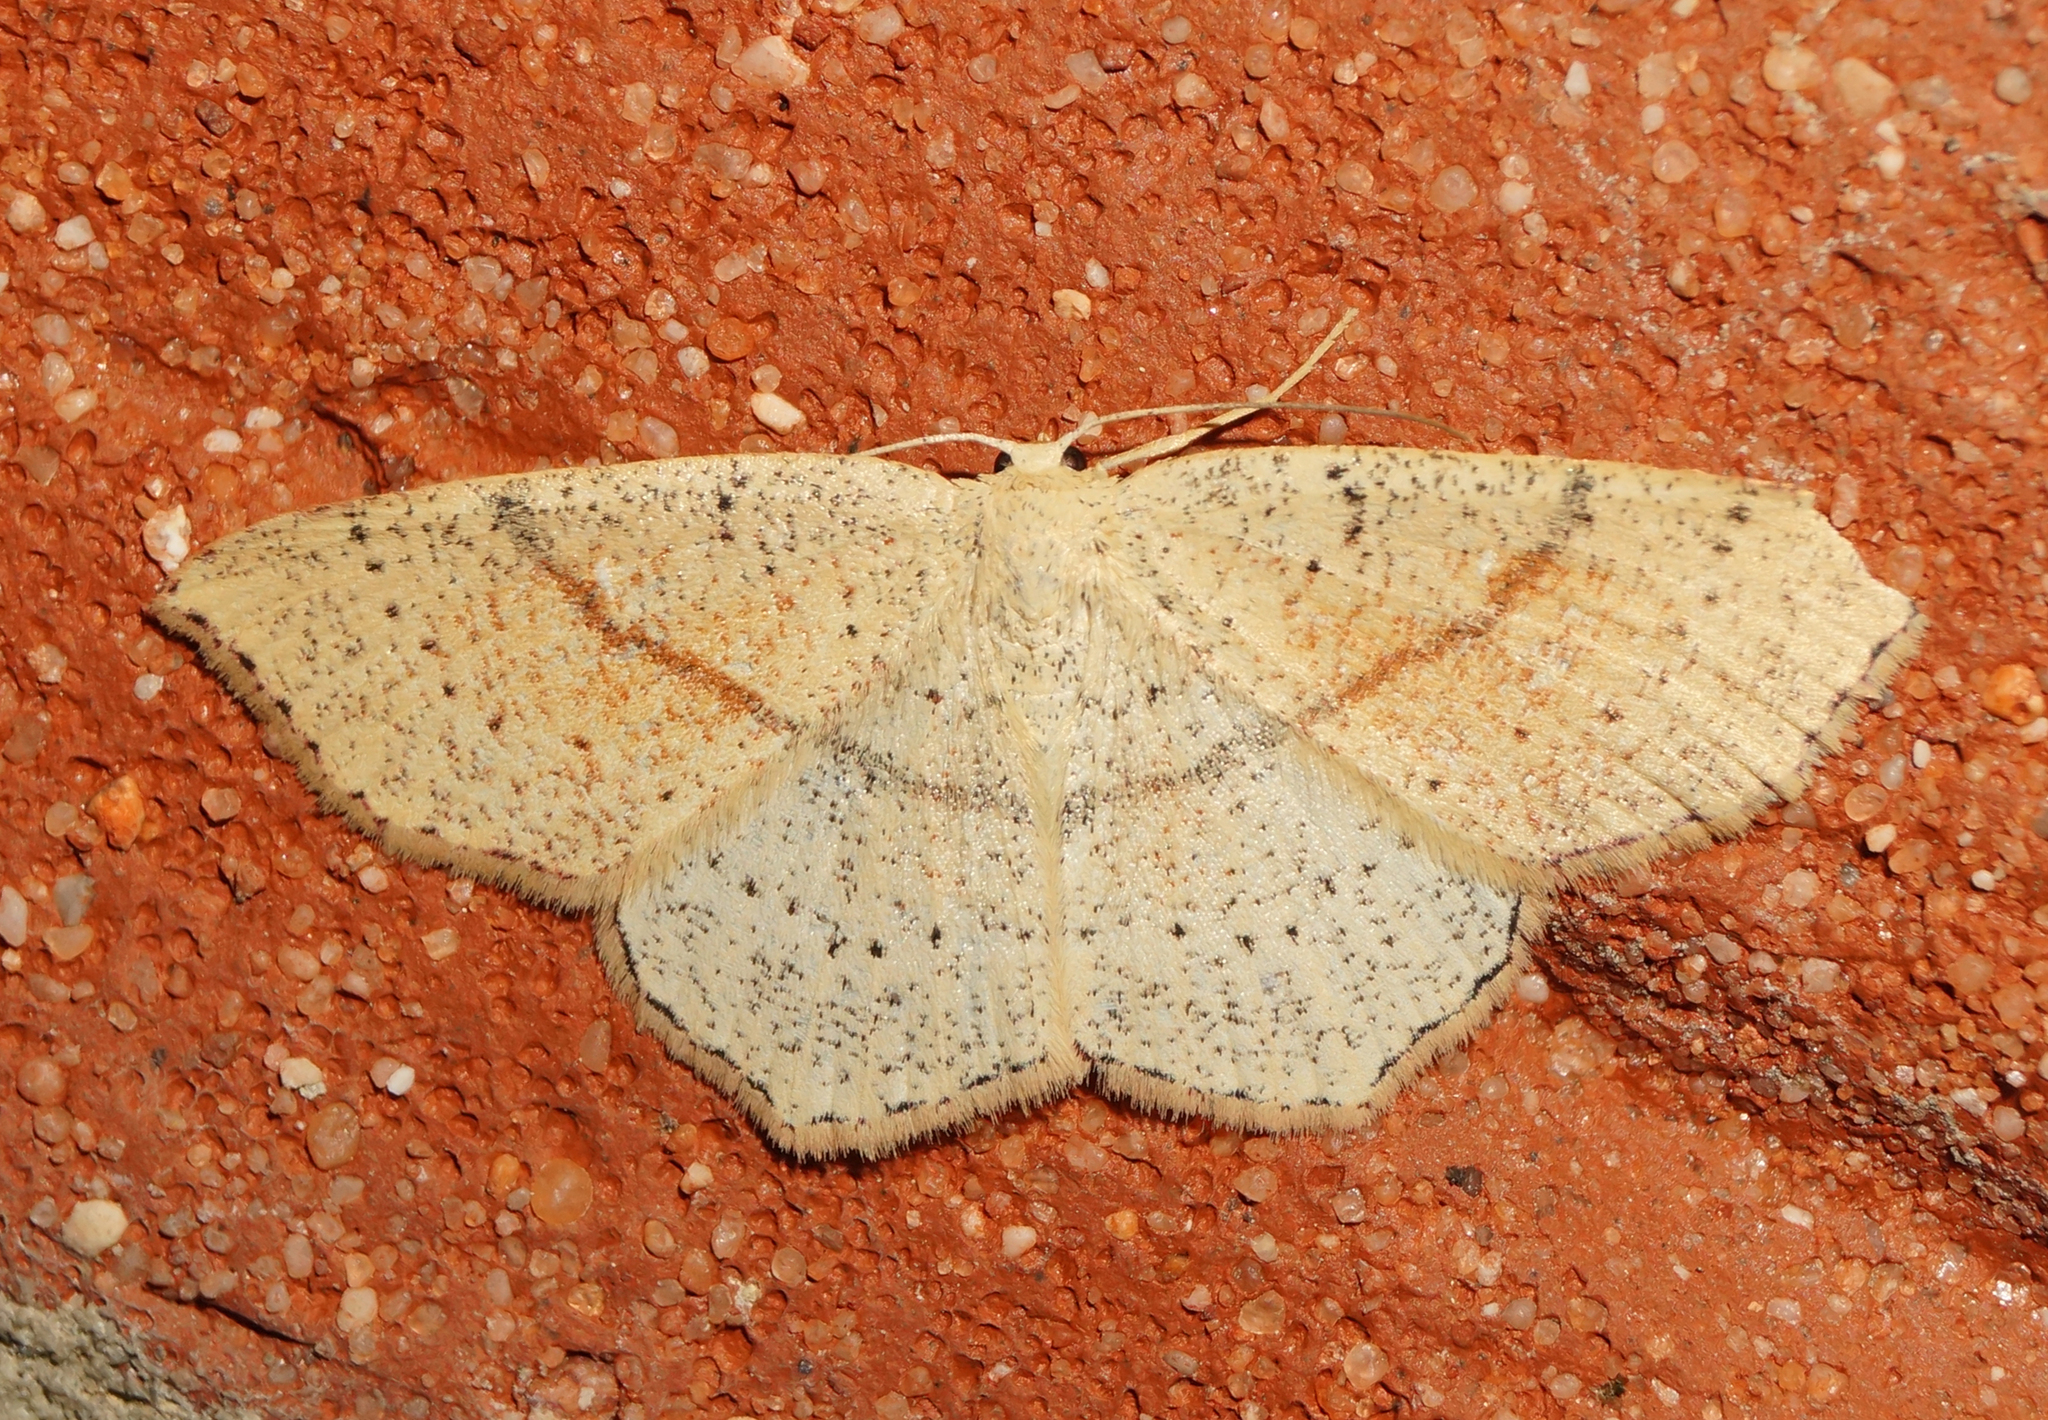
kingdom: Animalia
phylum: Arthropoda
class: Insecta
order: Lepidoptera
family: Geometridae
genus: Cyclophora
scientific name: Cyclophora punctaria
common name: Maiden's blush
